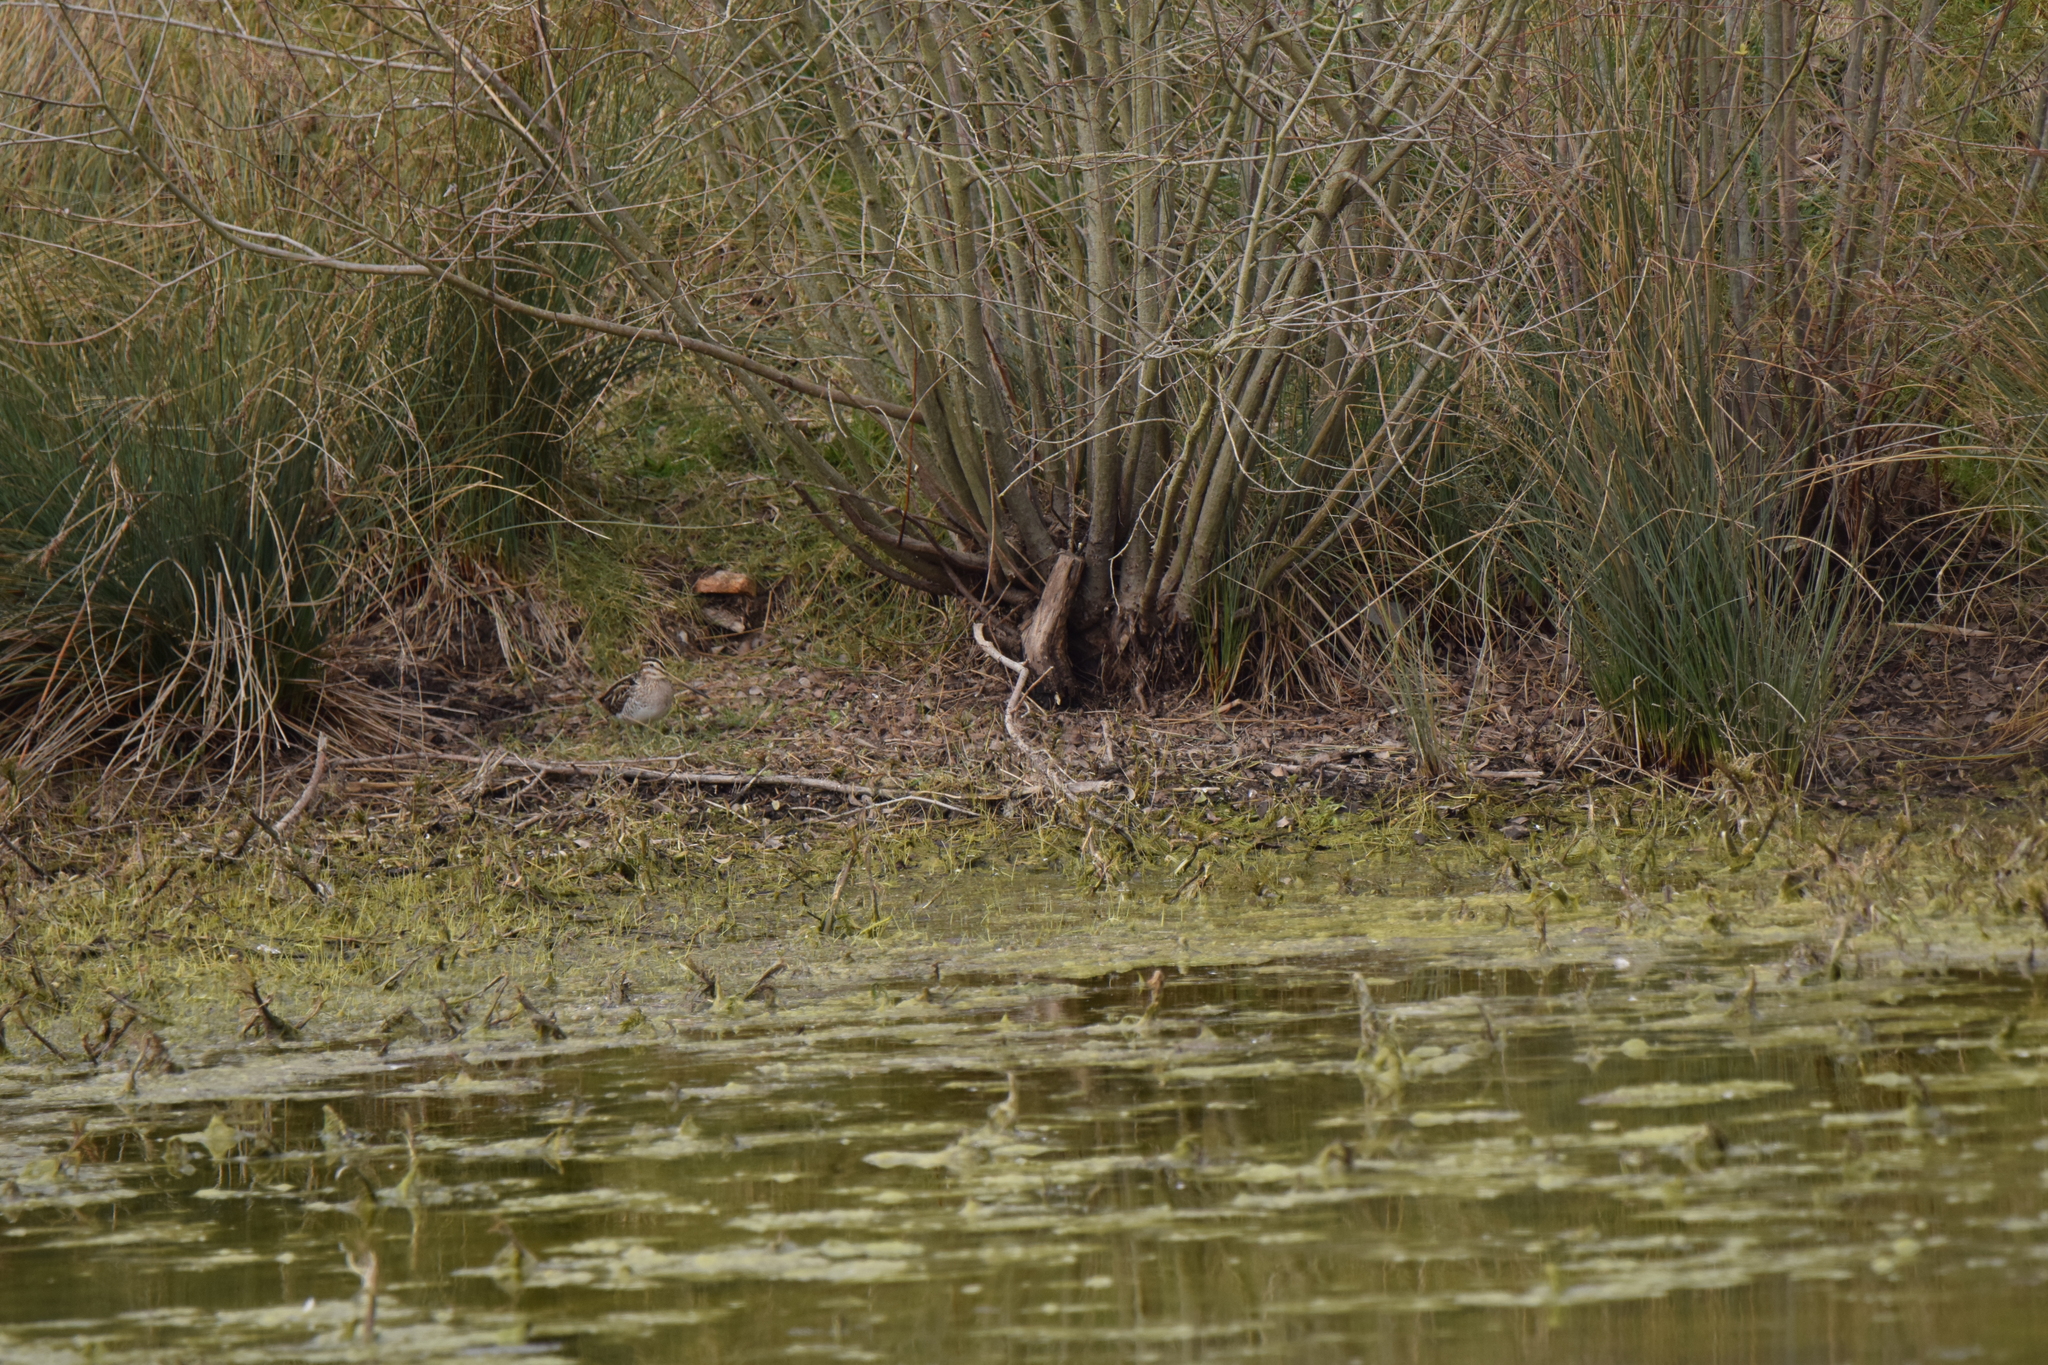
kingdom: Animalia
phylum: Chordata
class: Aves
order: Charadriiformes
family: Scolopacidae
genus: Gallinago
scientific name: Gallinago gallinago
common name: Common snipe
